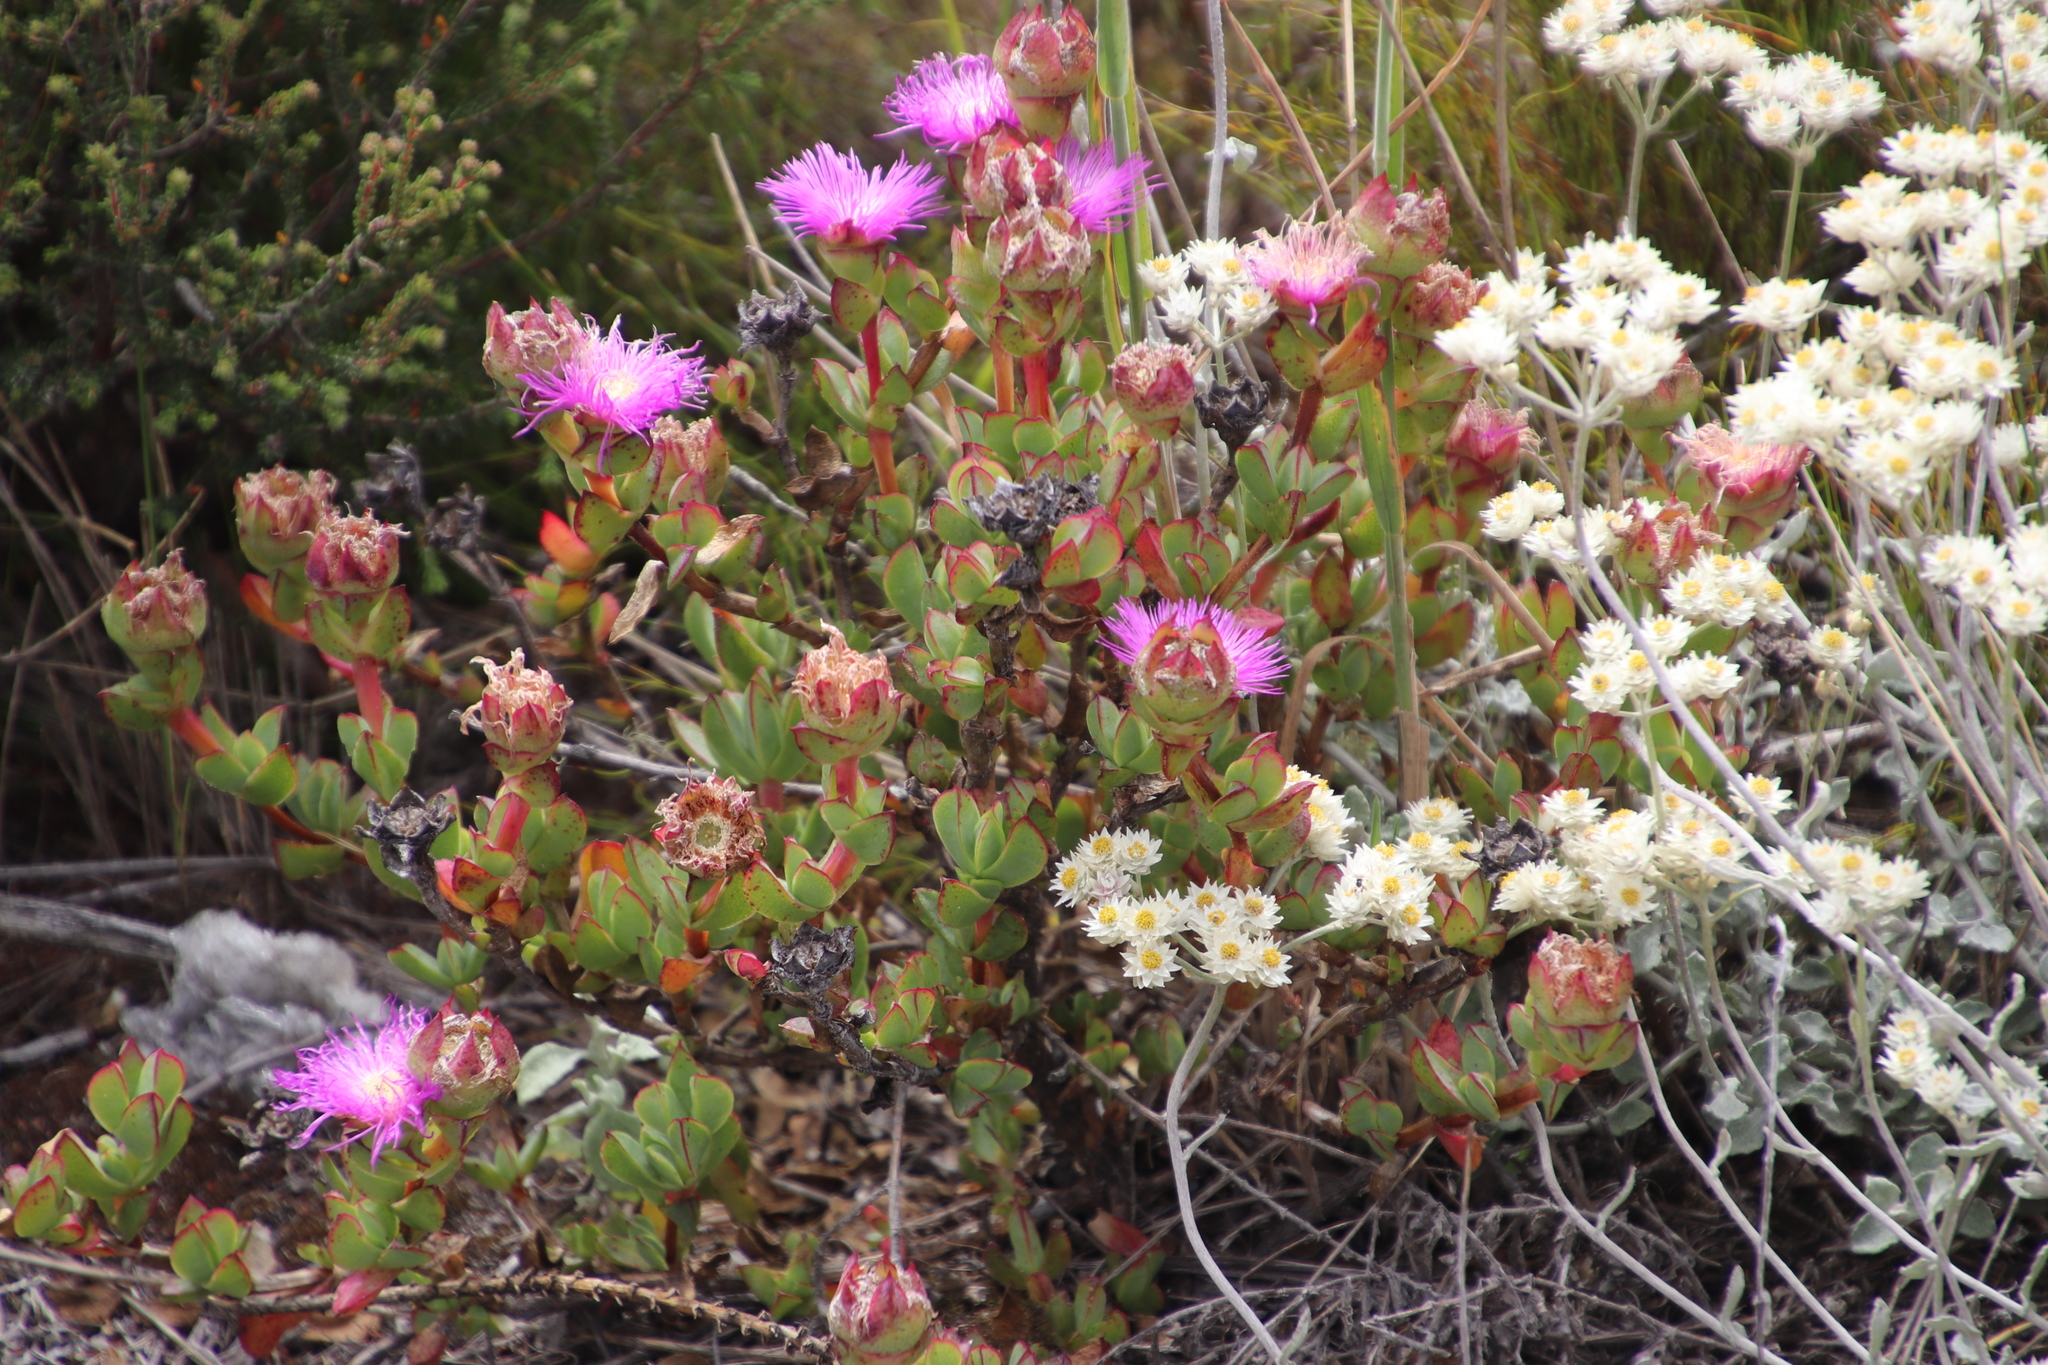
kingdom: Plantae
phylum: Tracheophyta
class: Magnoliopsida
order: Caryophyllales
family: Aizoaceae
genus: Erepsia
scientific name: Erepsia forficata
